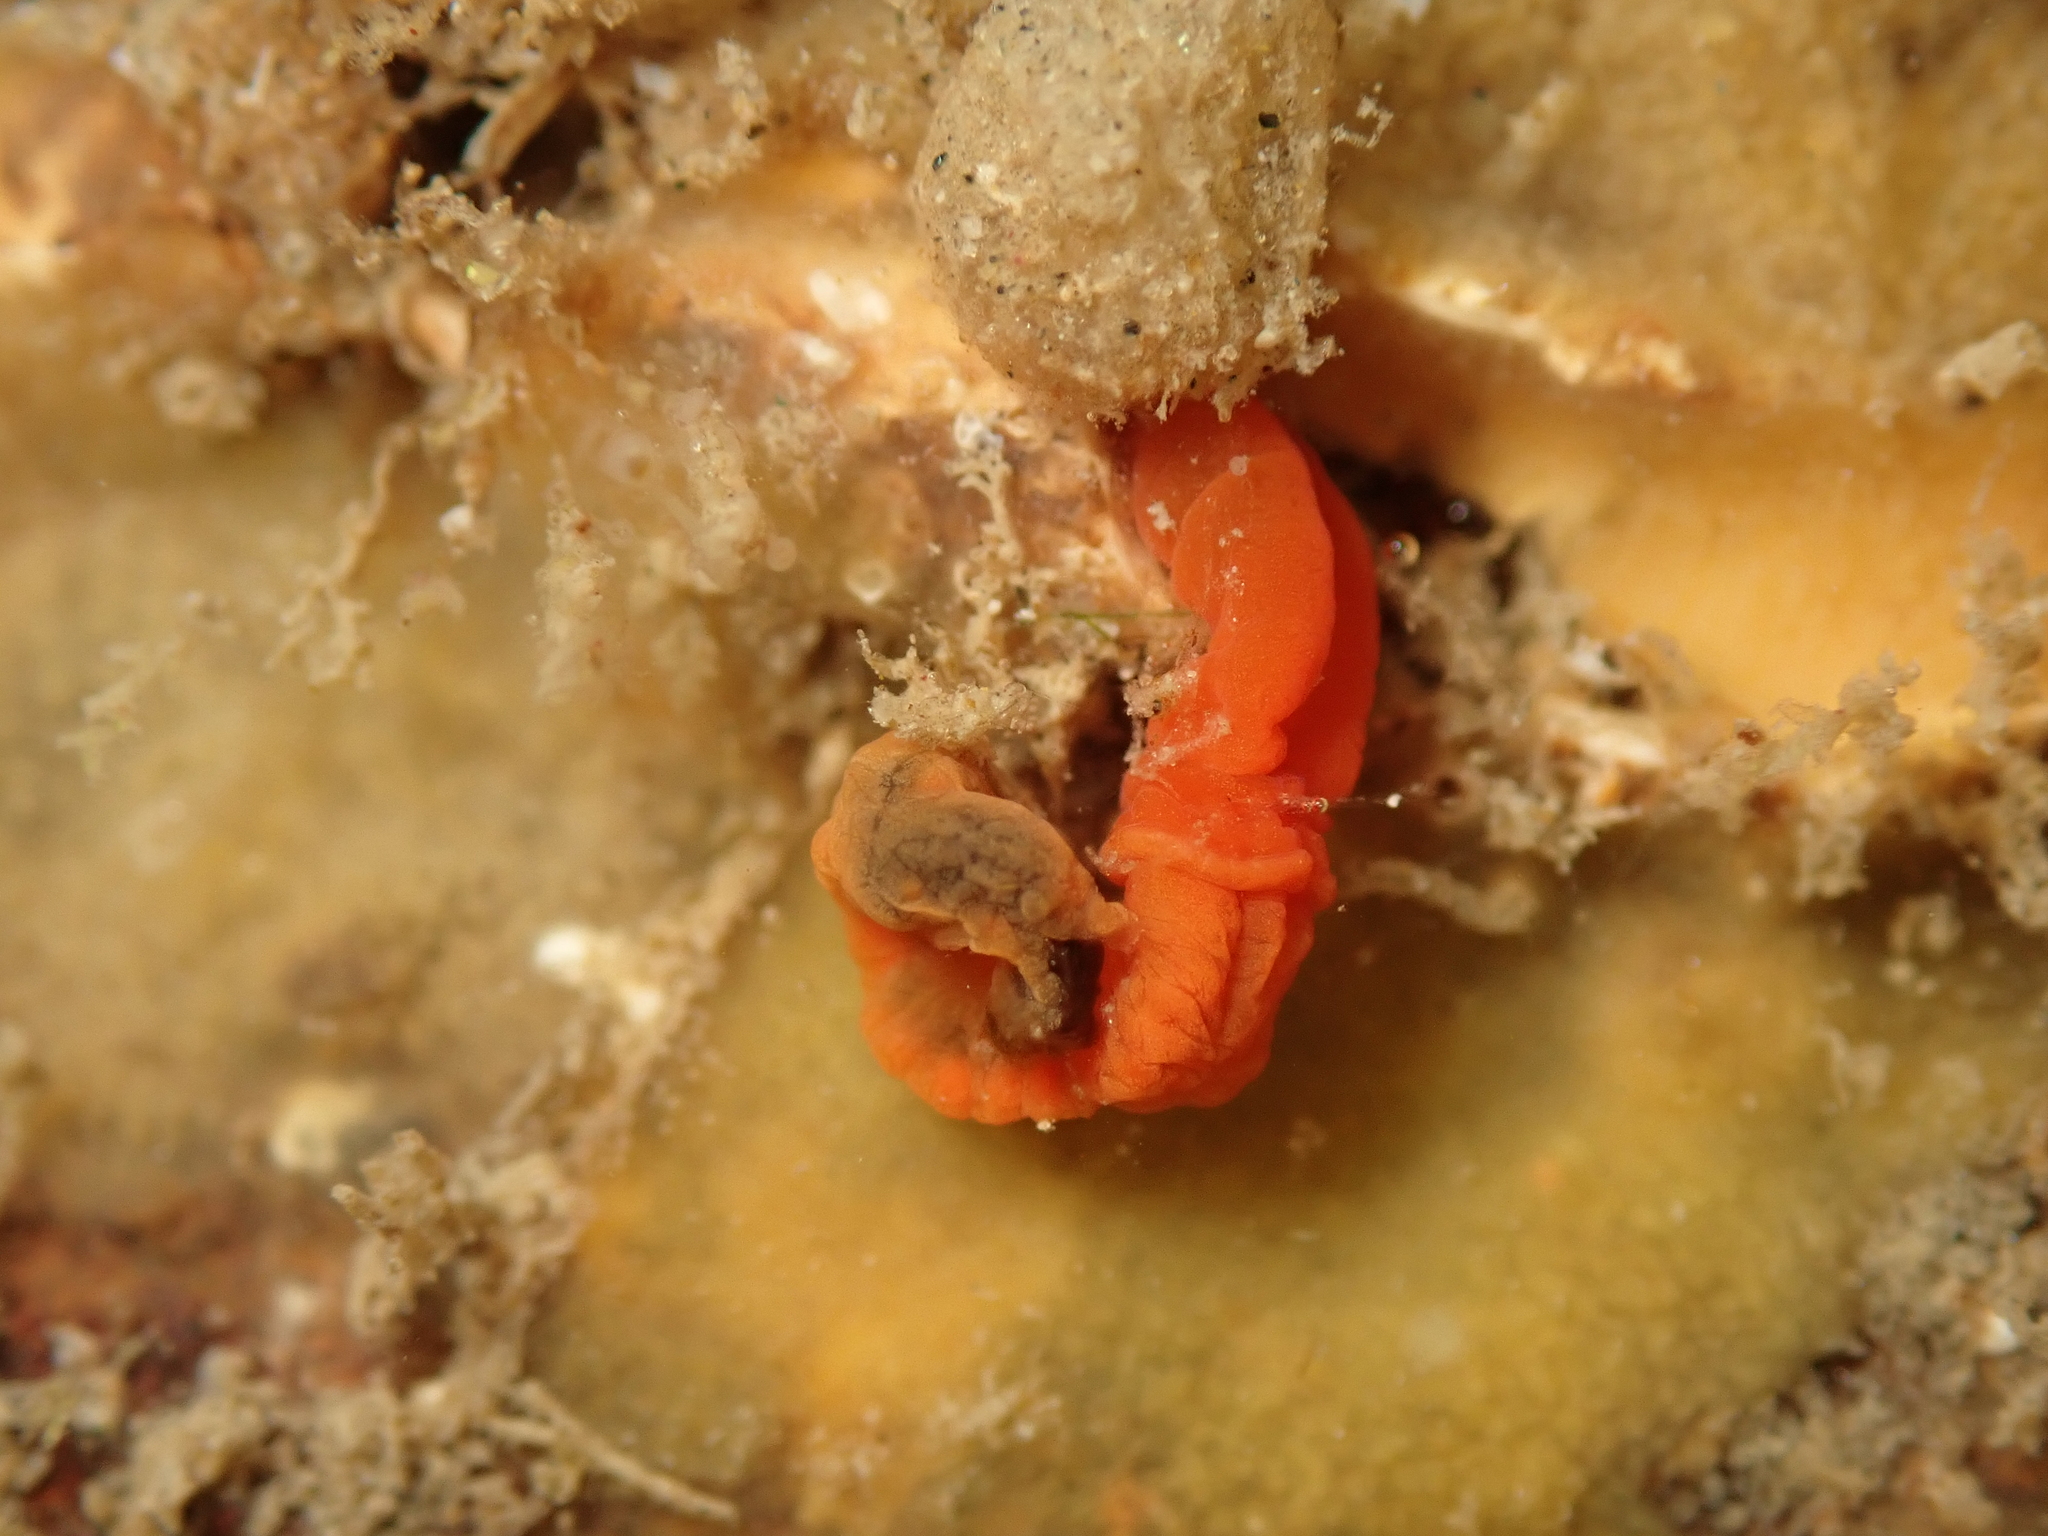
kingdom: Animalia
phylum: Hemichordata
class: Enteropneusta
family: Harrimaniidae
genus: Saccoglossus
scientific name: Saccoglossus otagoensis
